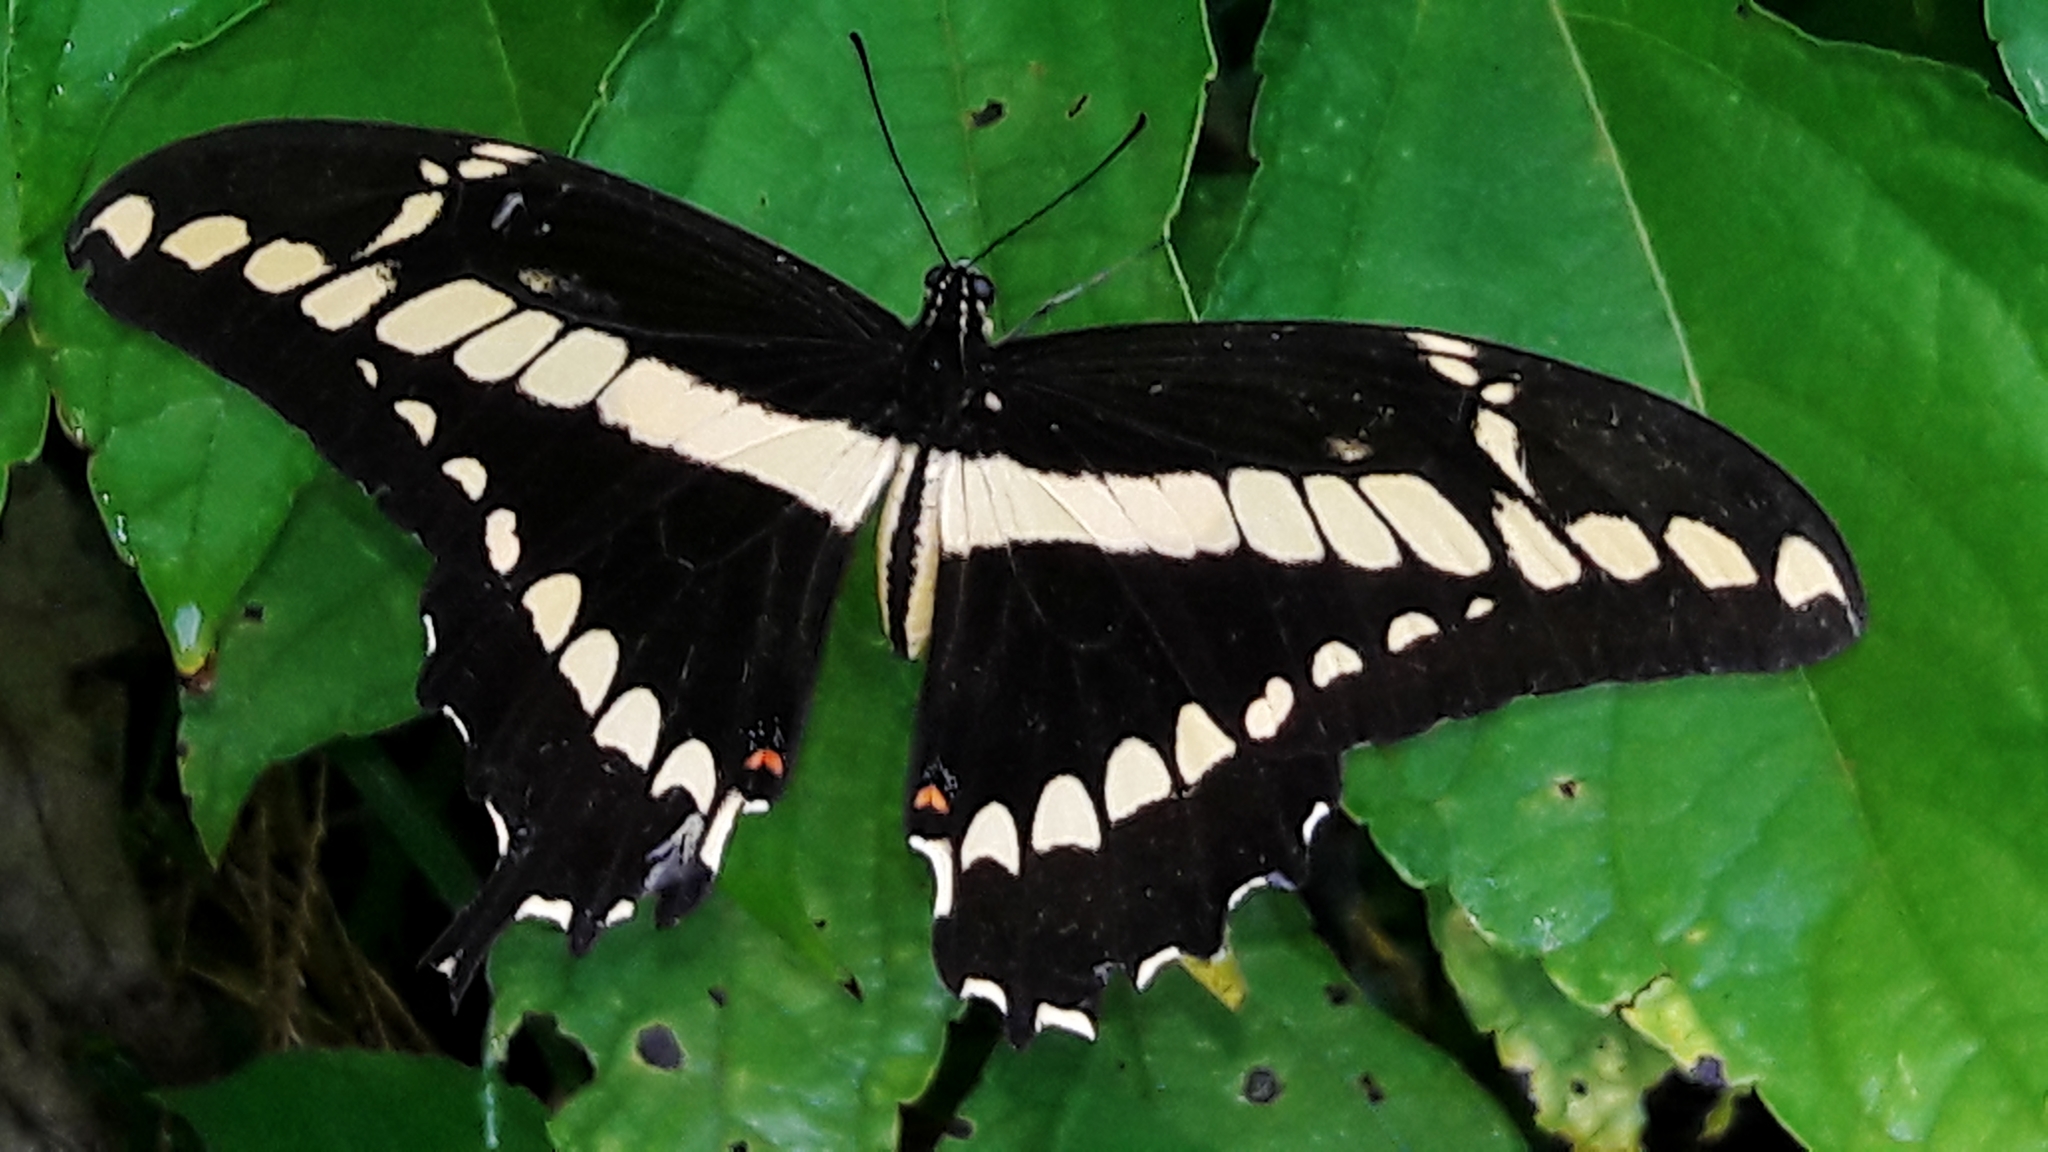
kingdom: Animalia
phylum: Arthropoda
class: Insecta
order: Lepidoptera
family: Papilionidae
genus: Papilio
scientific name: Papilio thoas
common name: King swallowtail
